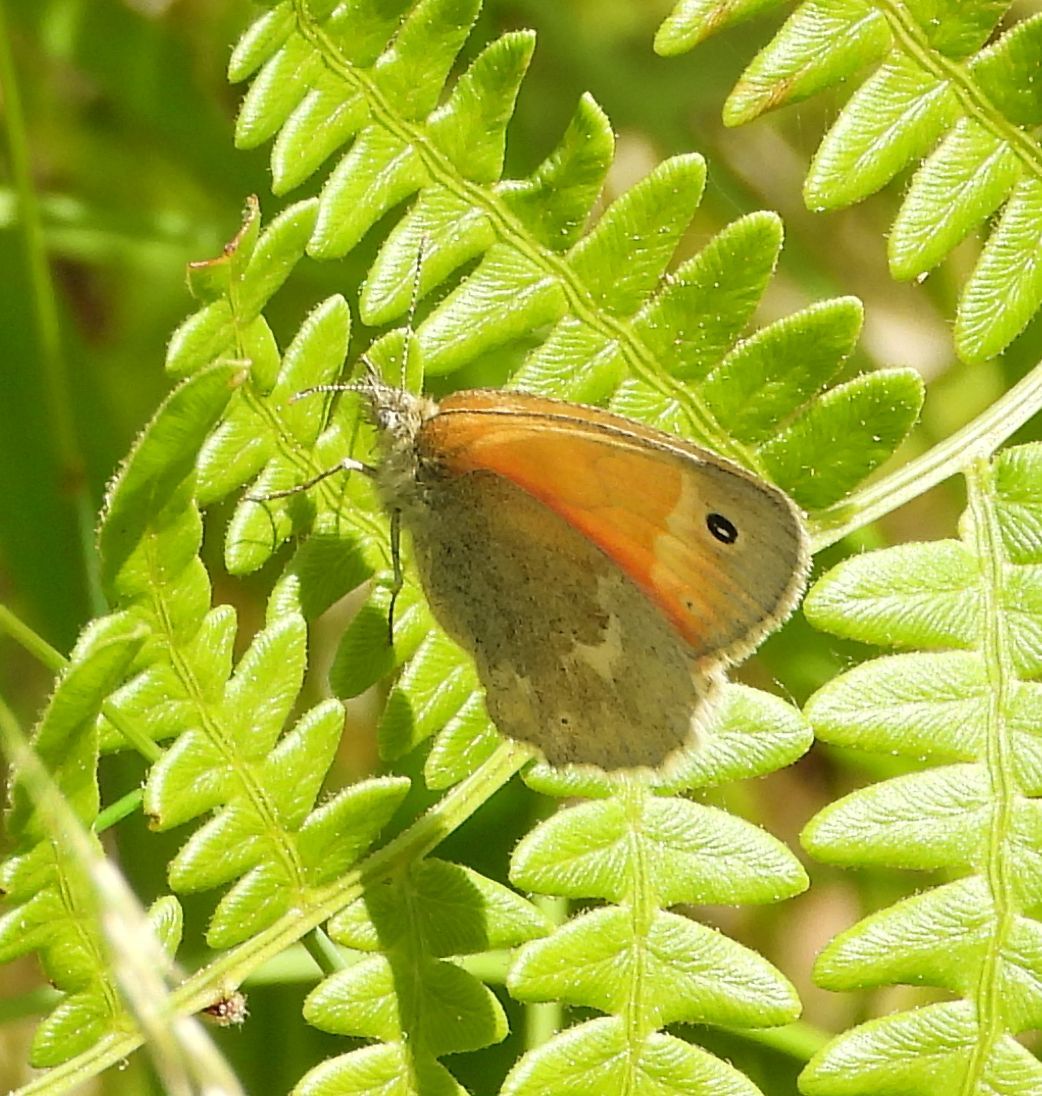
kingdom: Animalia
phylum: Arthropoda
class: Insecta
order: Lepidoptera
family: Nymphalidae
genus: Coenonympha
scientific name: Coenonympha california
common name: Common ringlet
